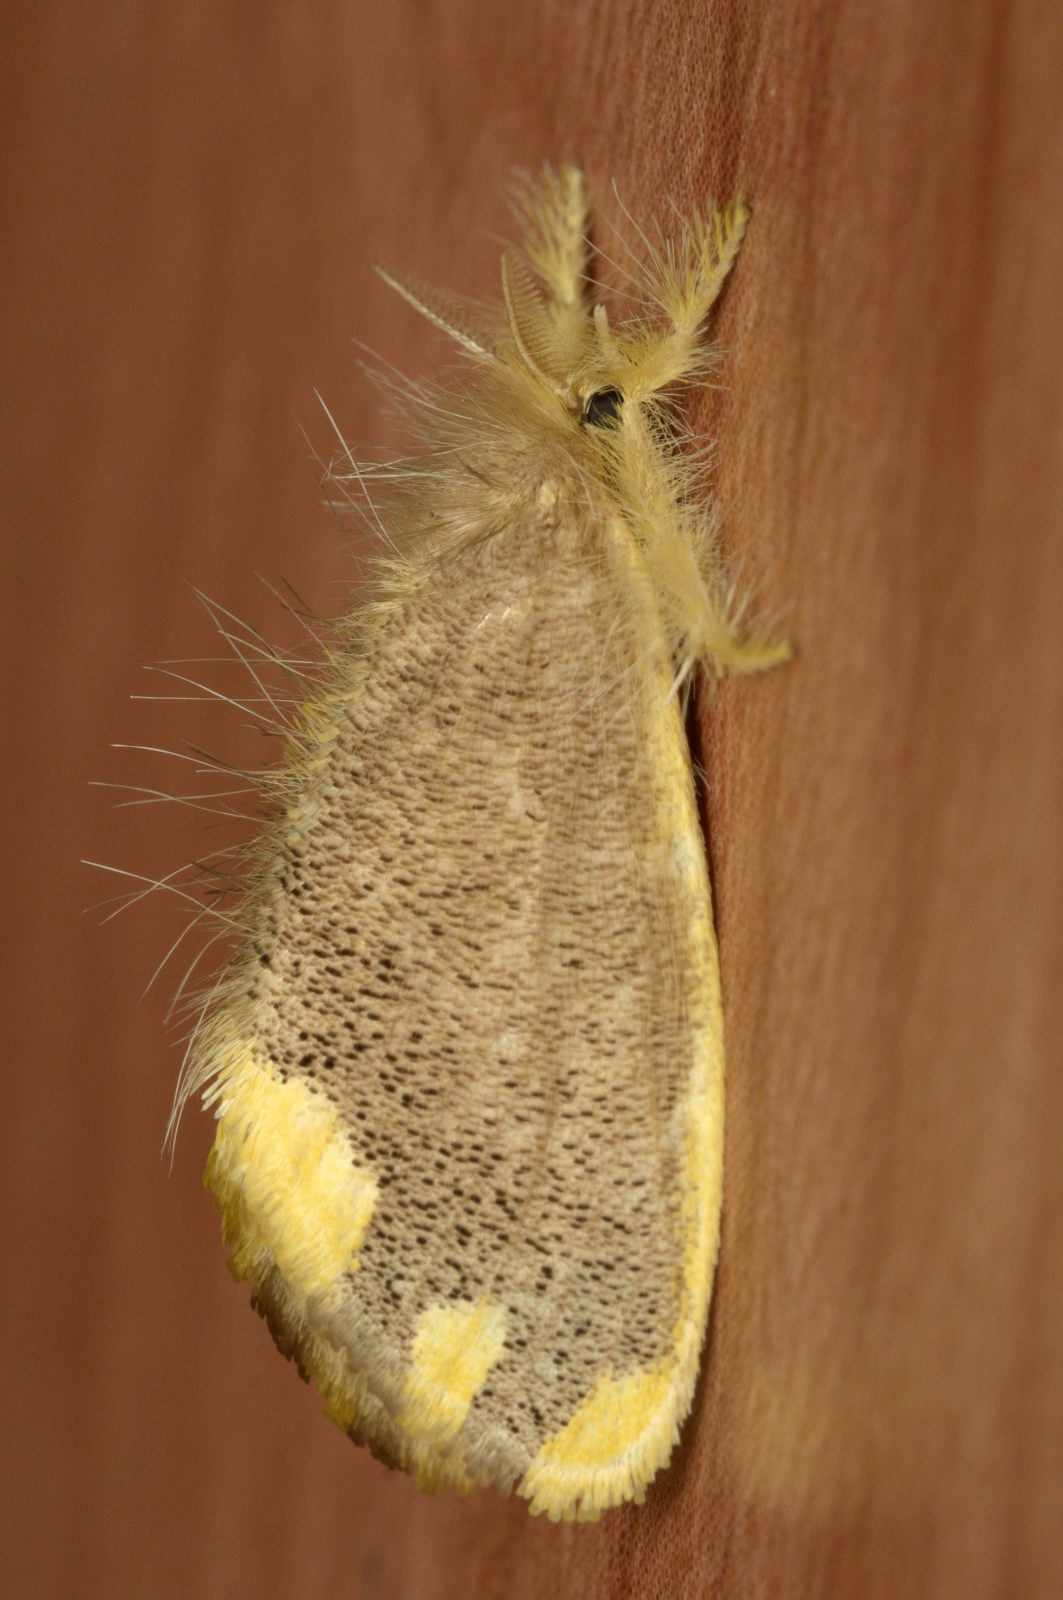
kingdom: Animalia
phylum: Arthropoda
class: Insecta
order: Lepidoptera
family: Erebidae
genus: Orvasca
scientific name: Orvasca subnotata
